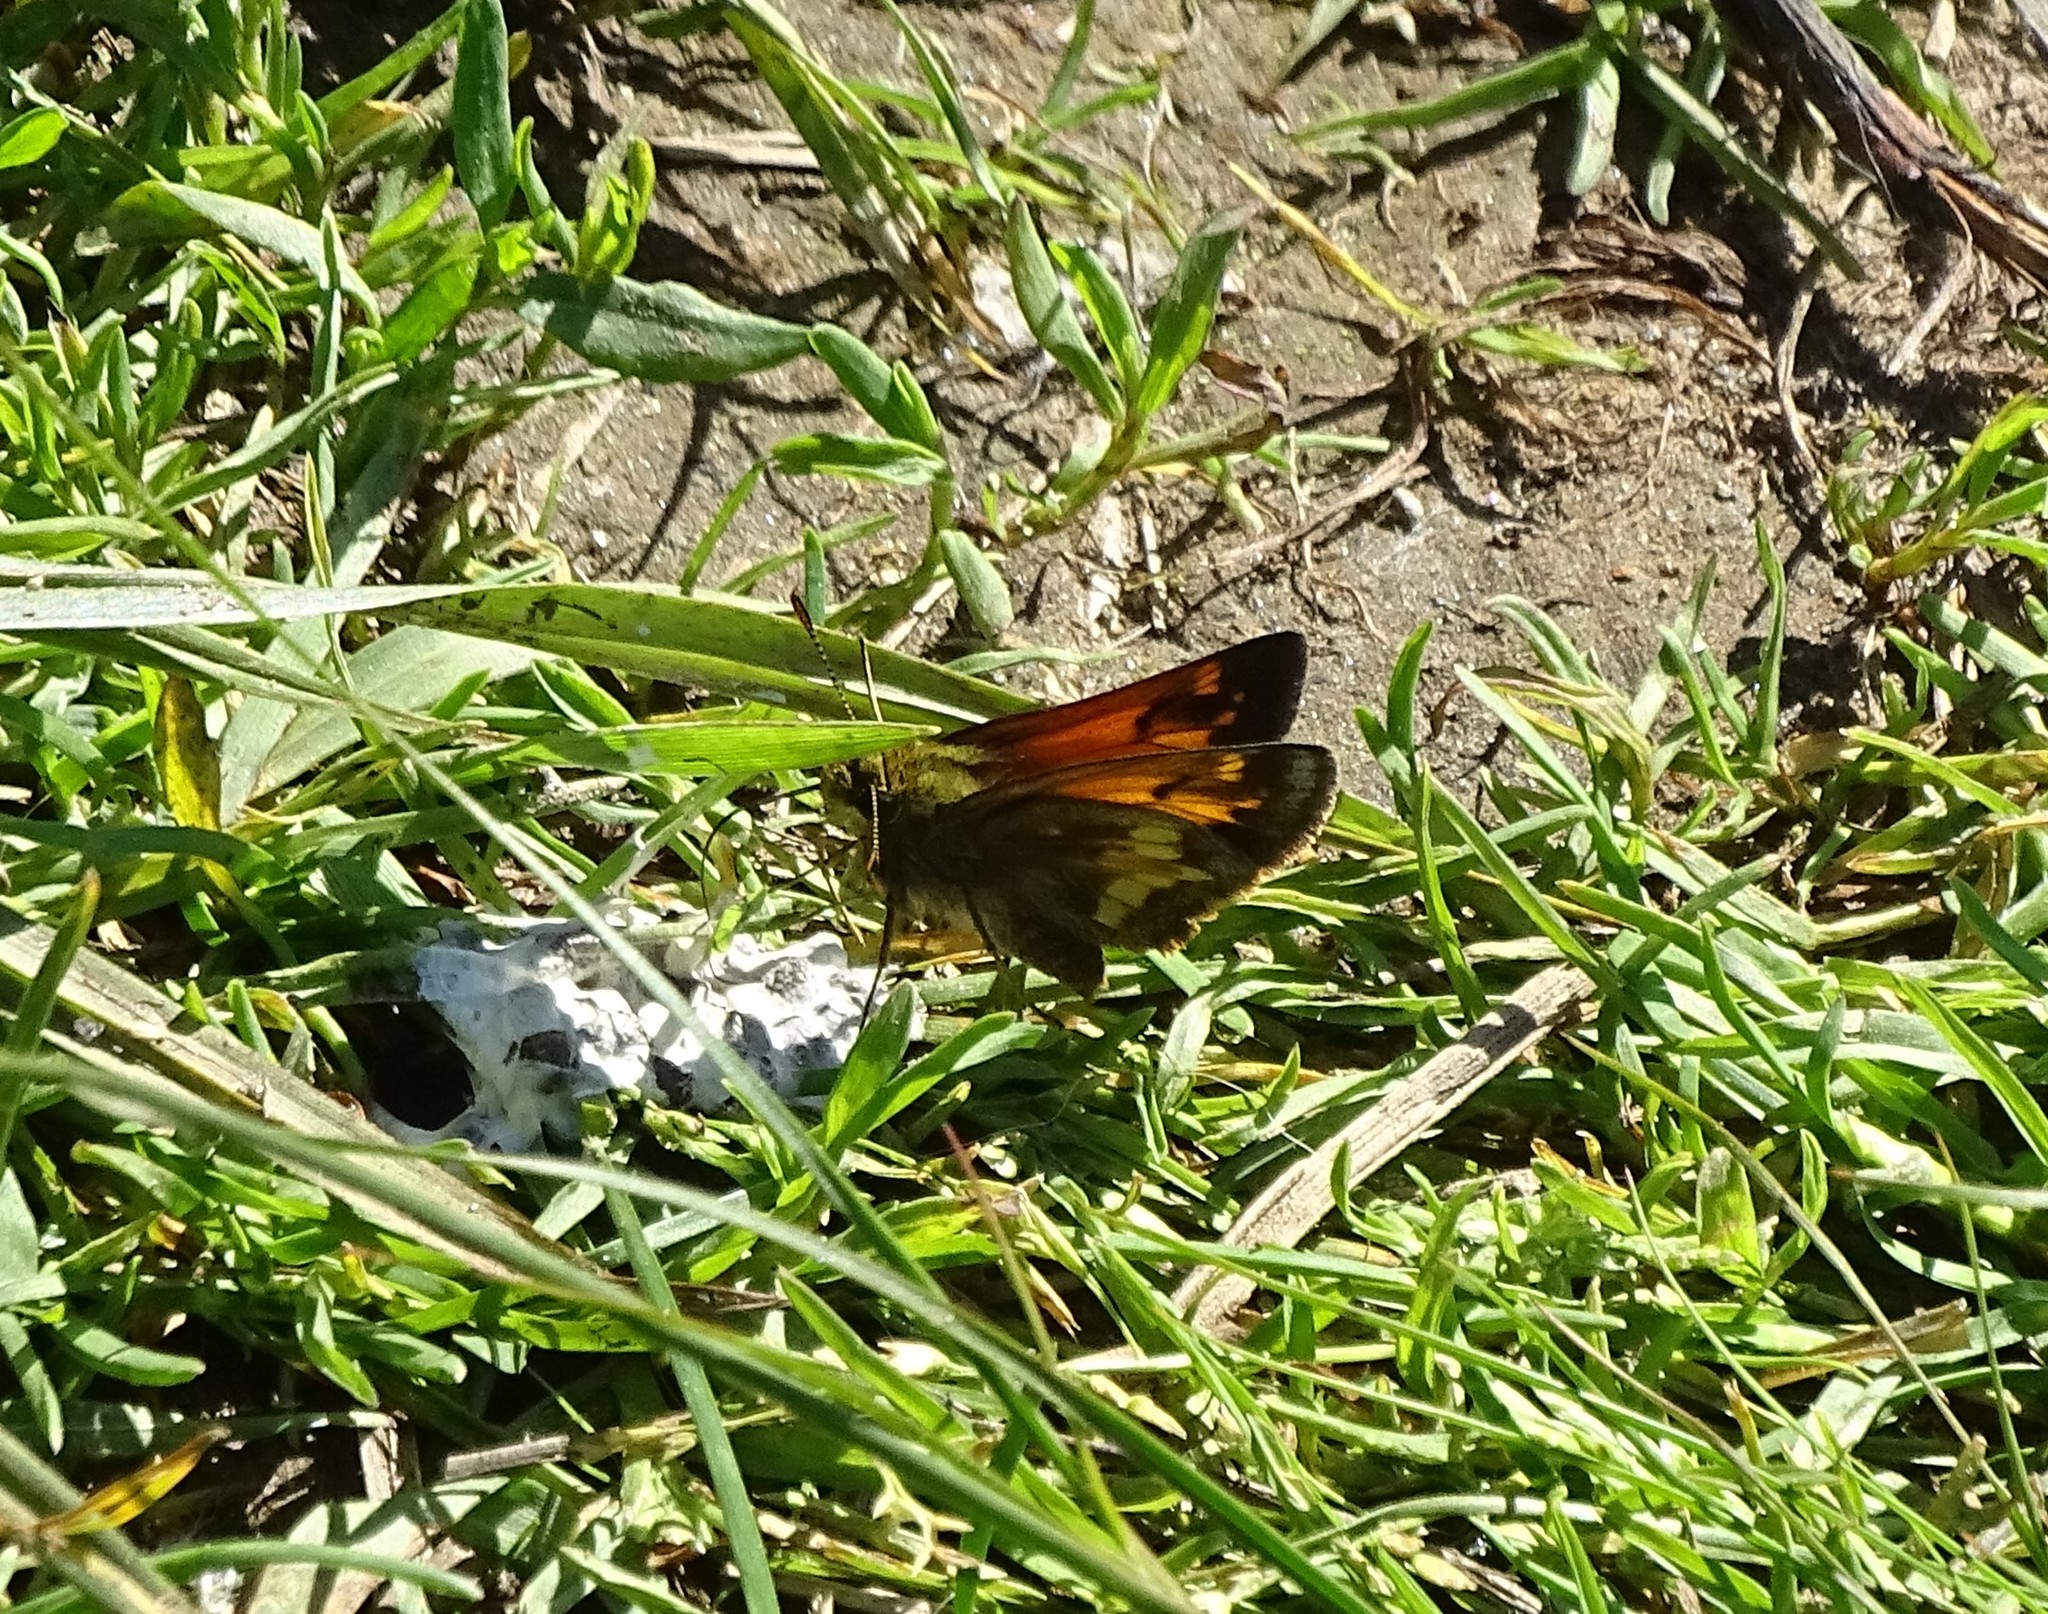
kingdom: Animalia
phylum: Arthropoda
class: Insecta
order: Lepidoptera
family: Hesperiidae
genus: Lon
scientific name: Lon hobomok
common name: Hobomok skipper
